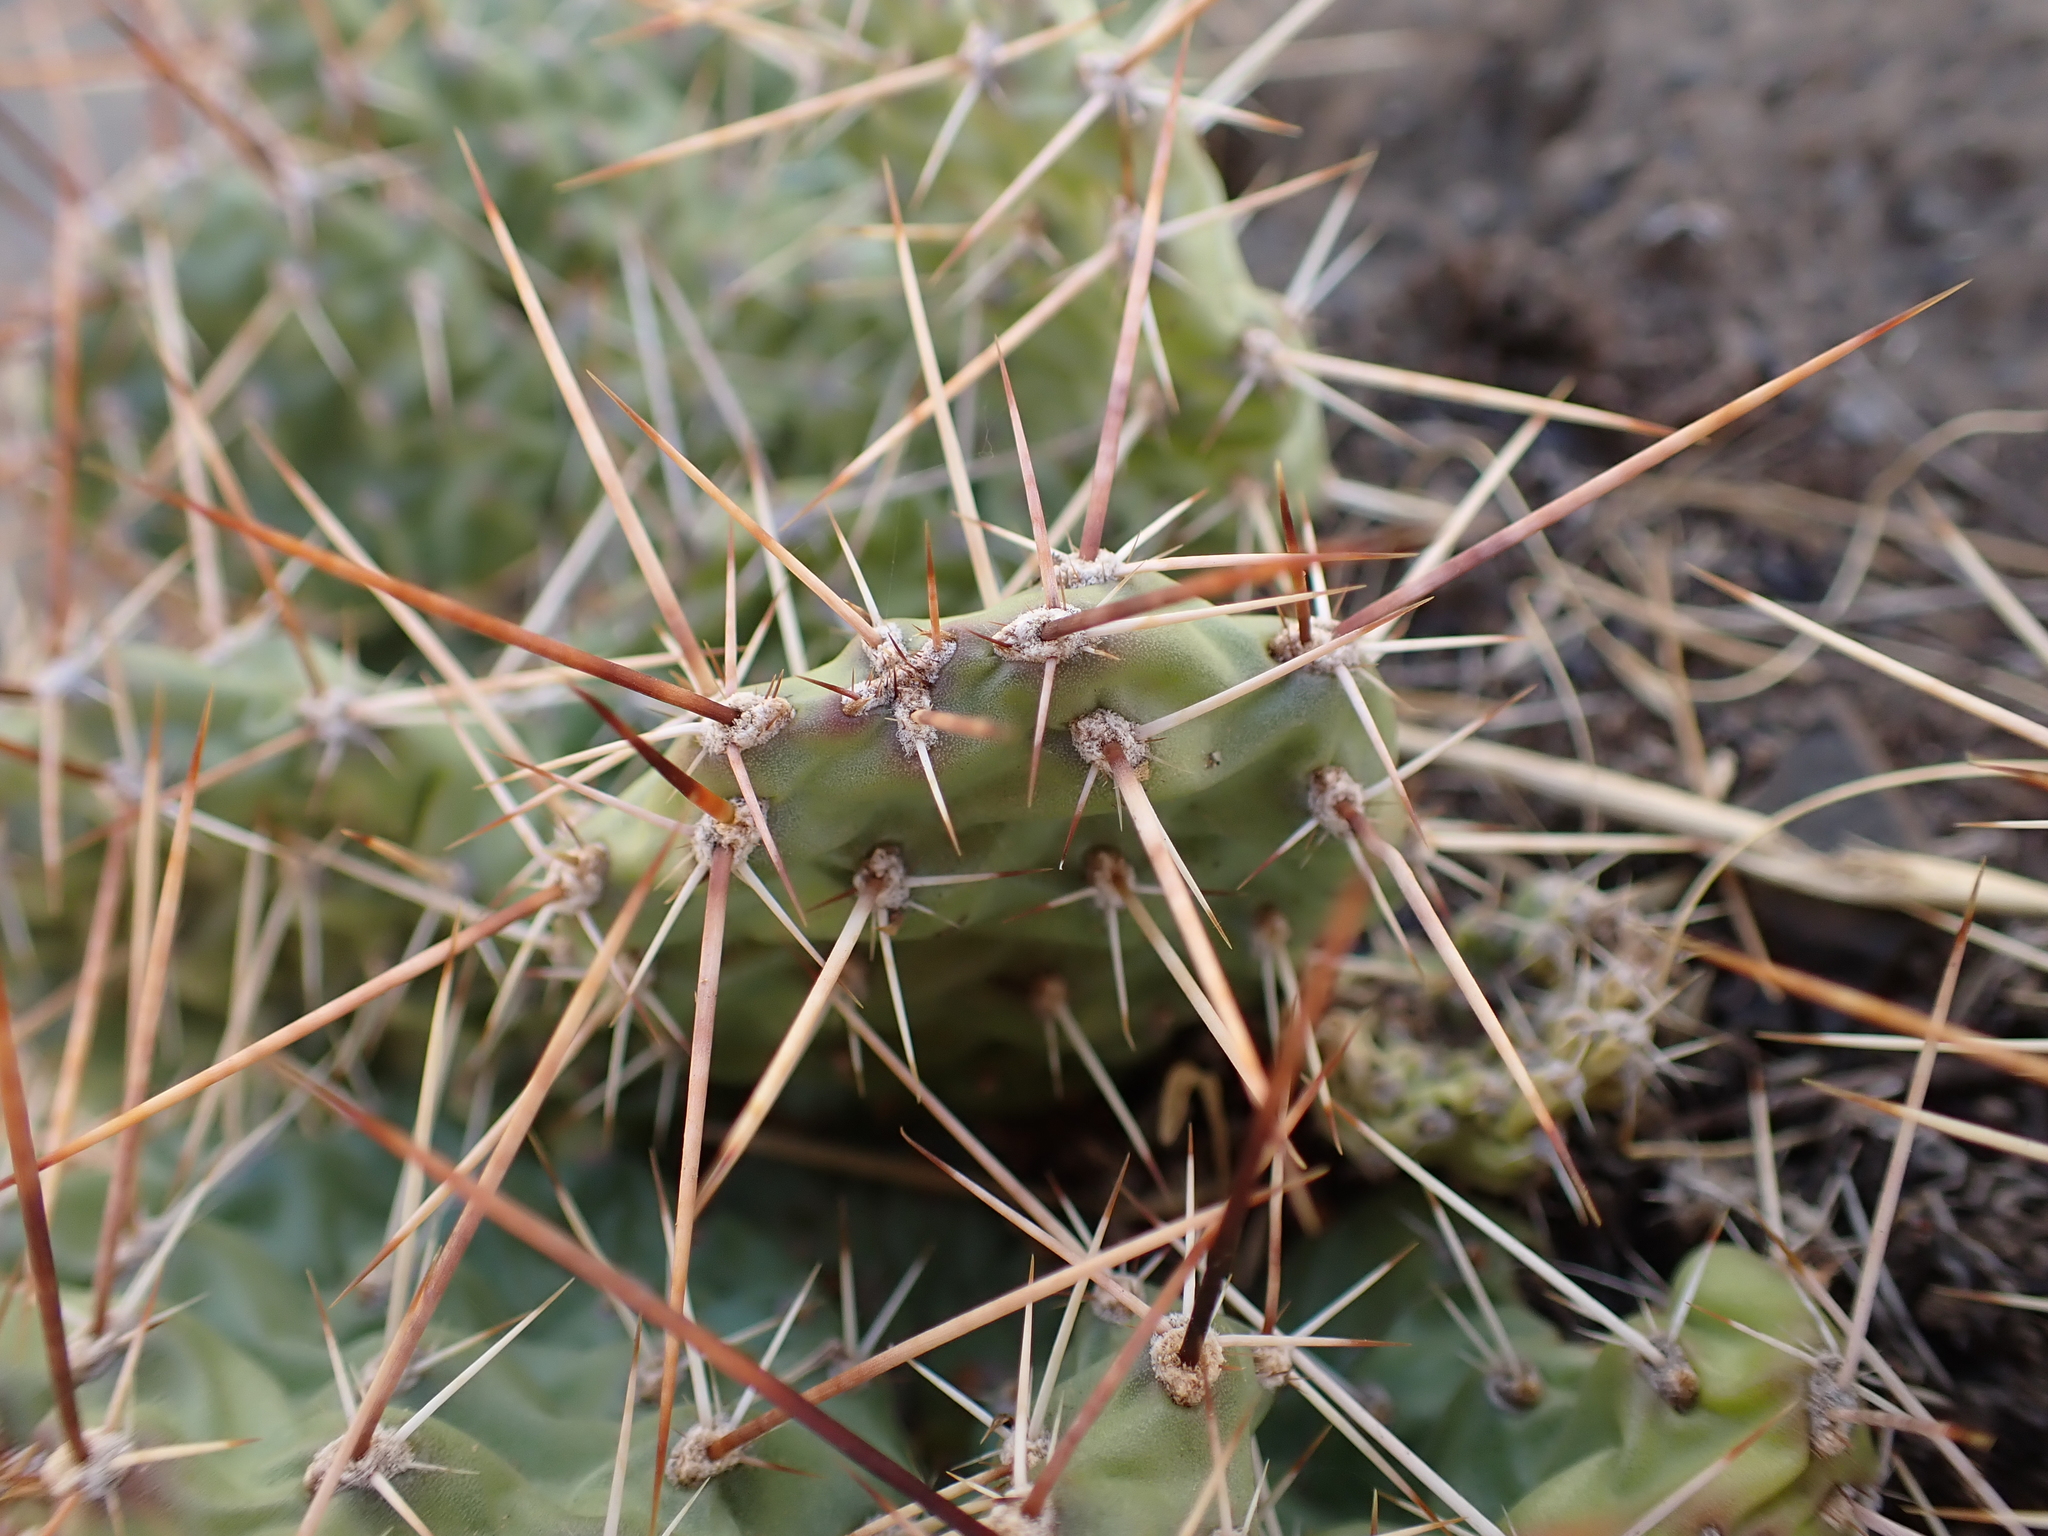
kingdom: Plantae
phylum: Tracheophyta
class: Magnoliopsida
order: Caryophyllales
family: Cactaceae
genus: Opuntia
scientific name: Opuntia columbiana
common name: Columbia prickly-pear
